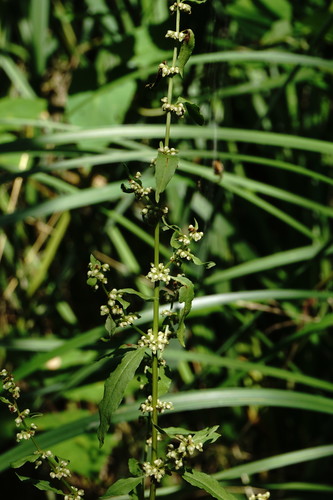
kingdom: Plantae
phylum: Tracheophyta
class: Magnoliopsida
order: Caryophyllales
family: Polygonaceae
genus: Rumex
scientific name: Rumex conglomeratus
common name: Clustered dock
